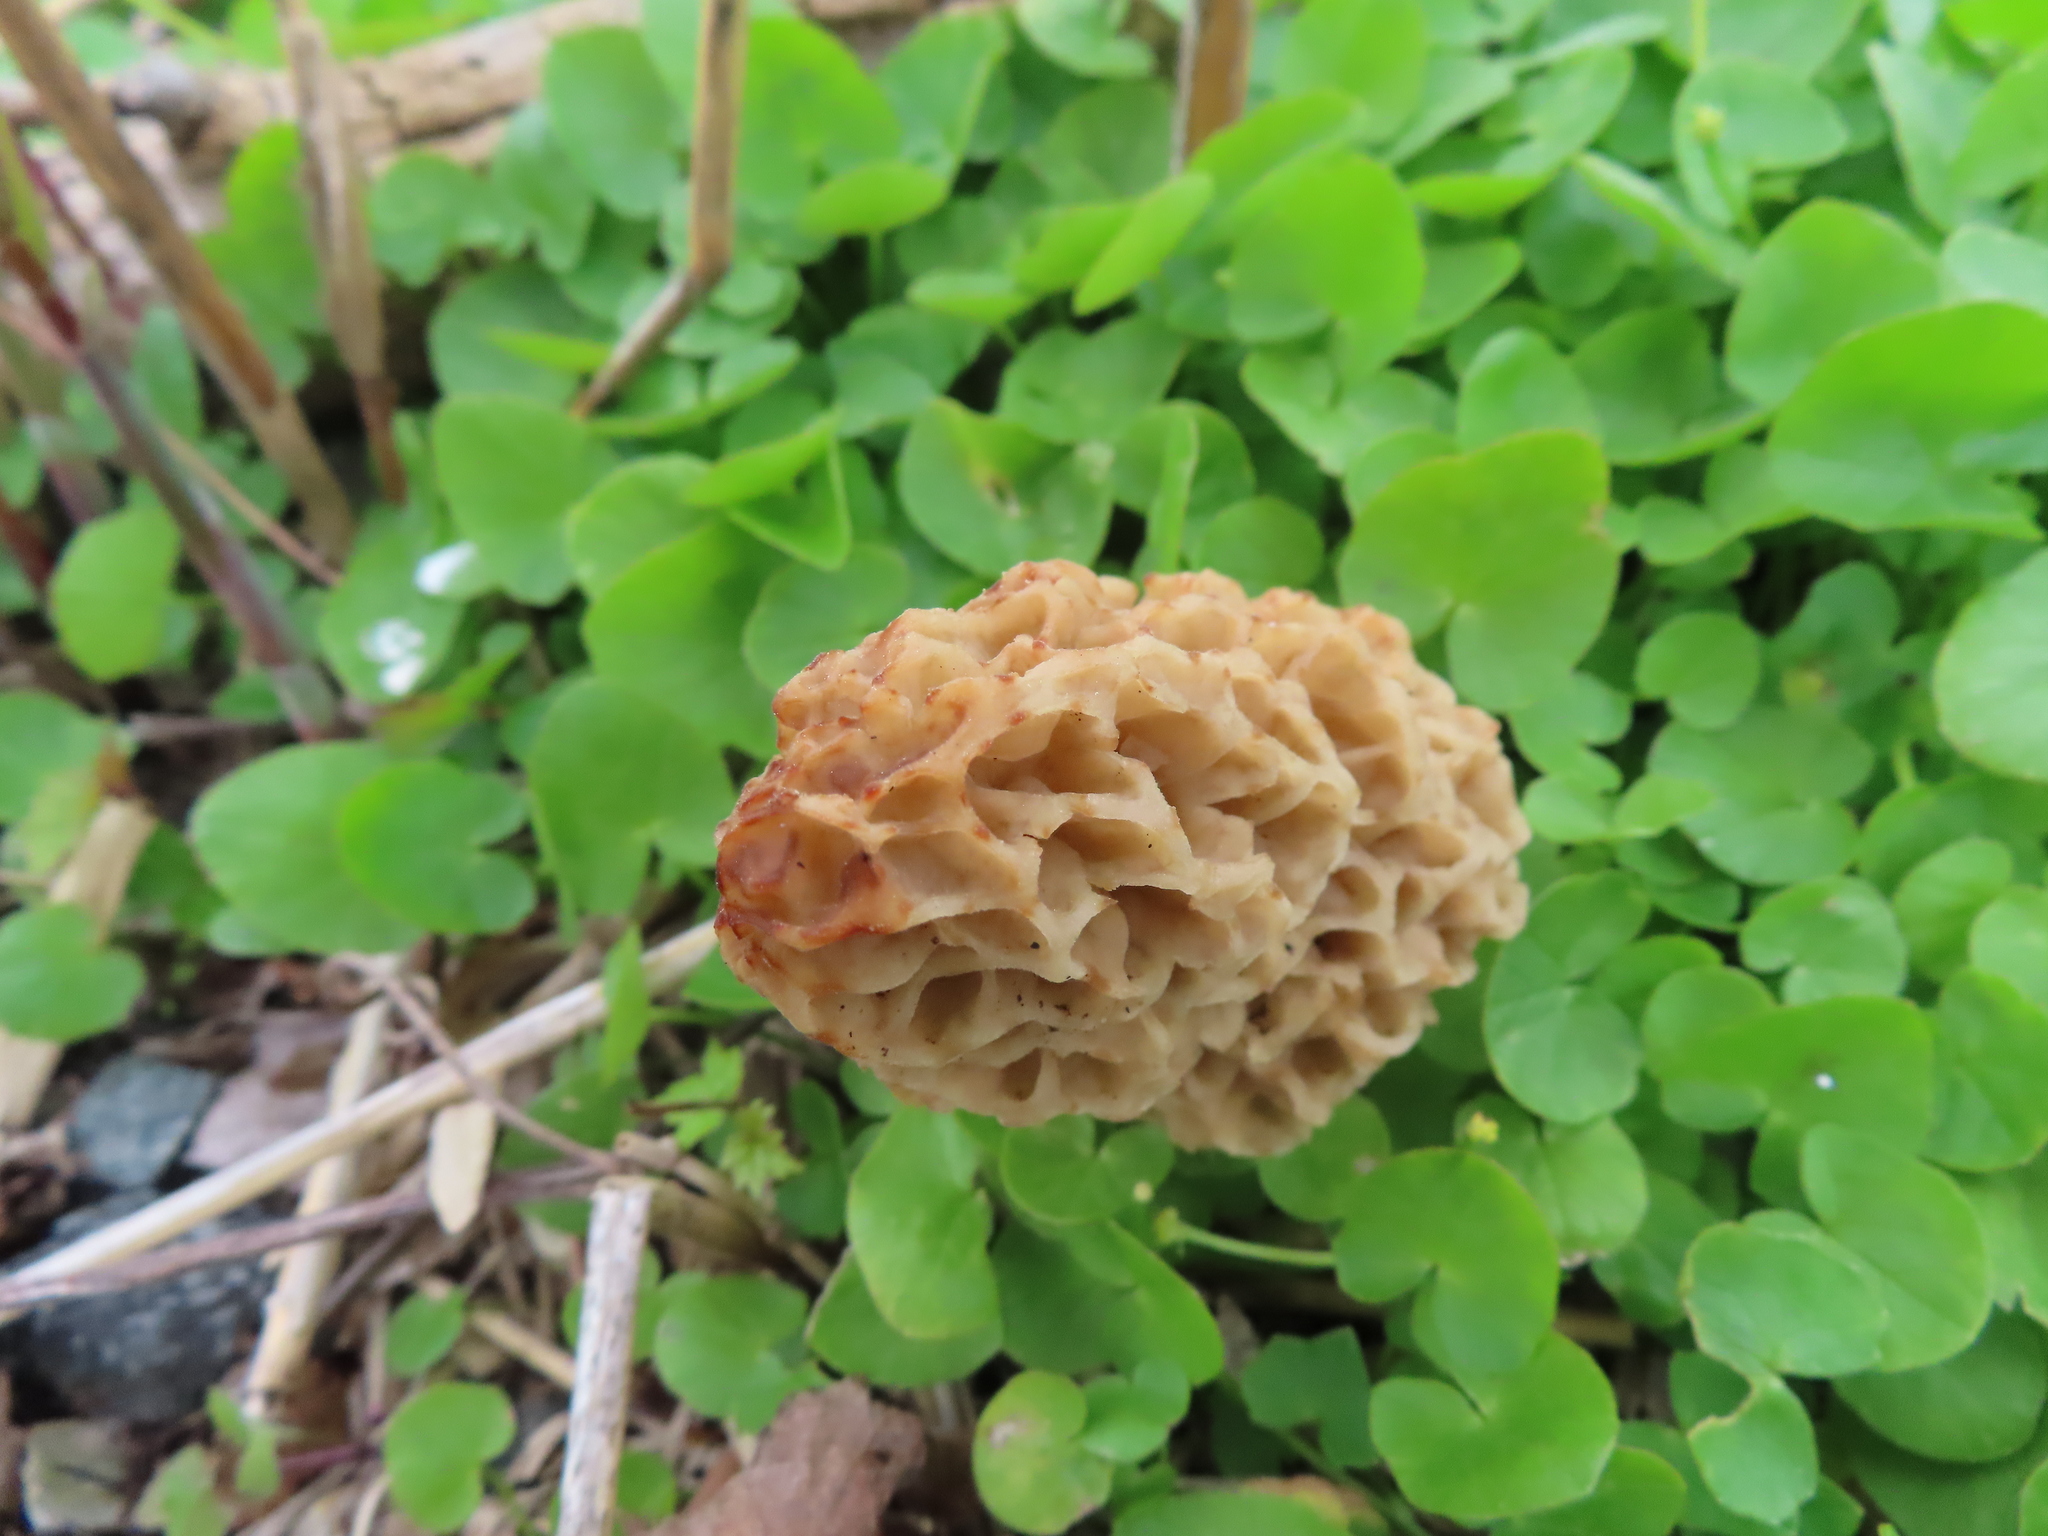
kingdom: Fungi
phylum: Ascomycota
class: Pezizomycetes
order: Pezizales
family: Morchellaceae
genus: Morchella
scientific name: Morchella americana
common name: White morel
